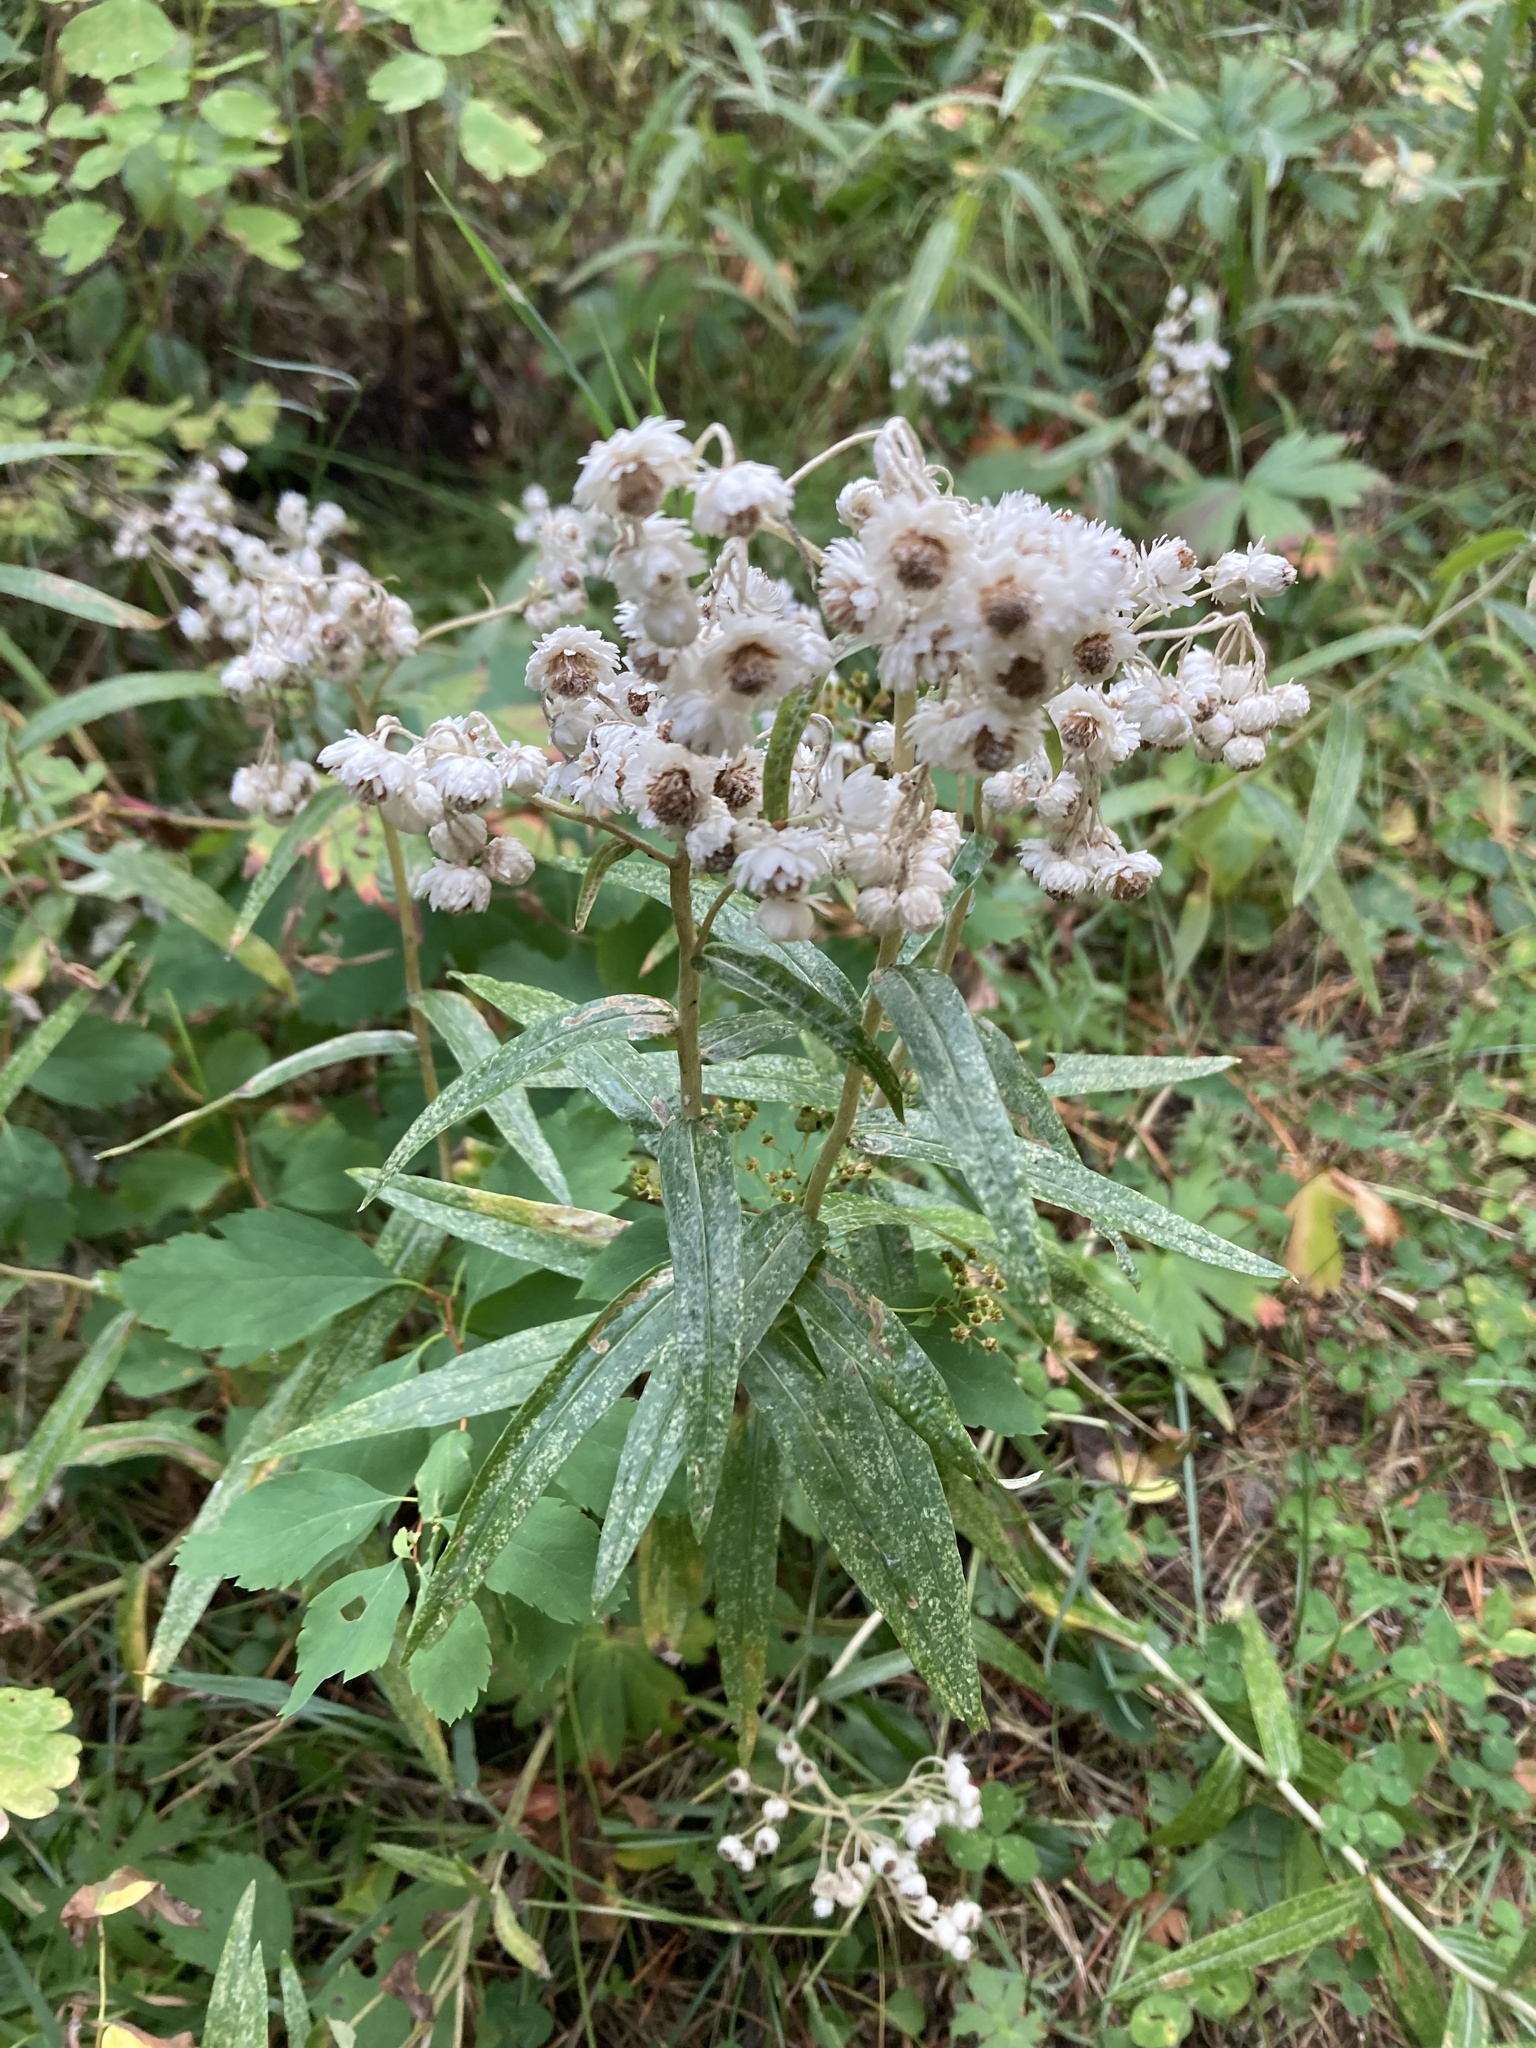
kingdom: Plantae
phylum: Tracheophyta
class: Magnoliopsida
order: Asterales
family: Asteraceae
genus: Anaphalis
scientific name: Anaphalis margaritacea
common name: Pearly everlasting
